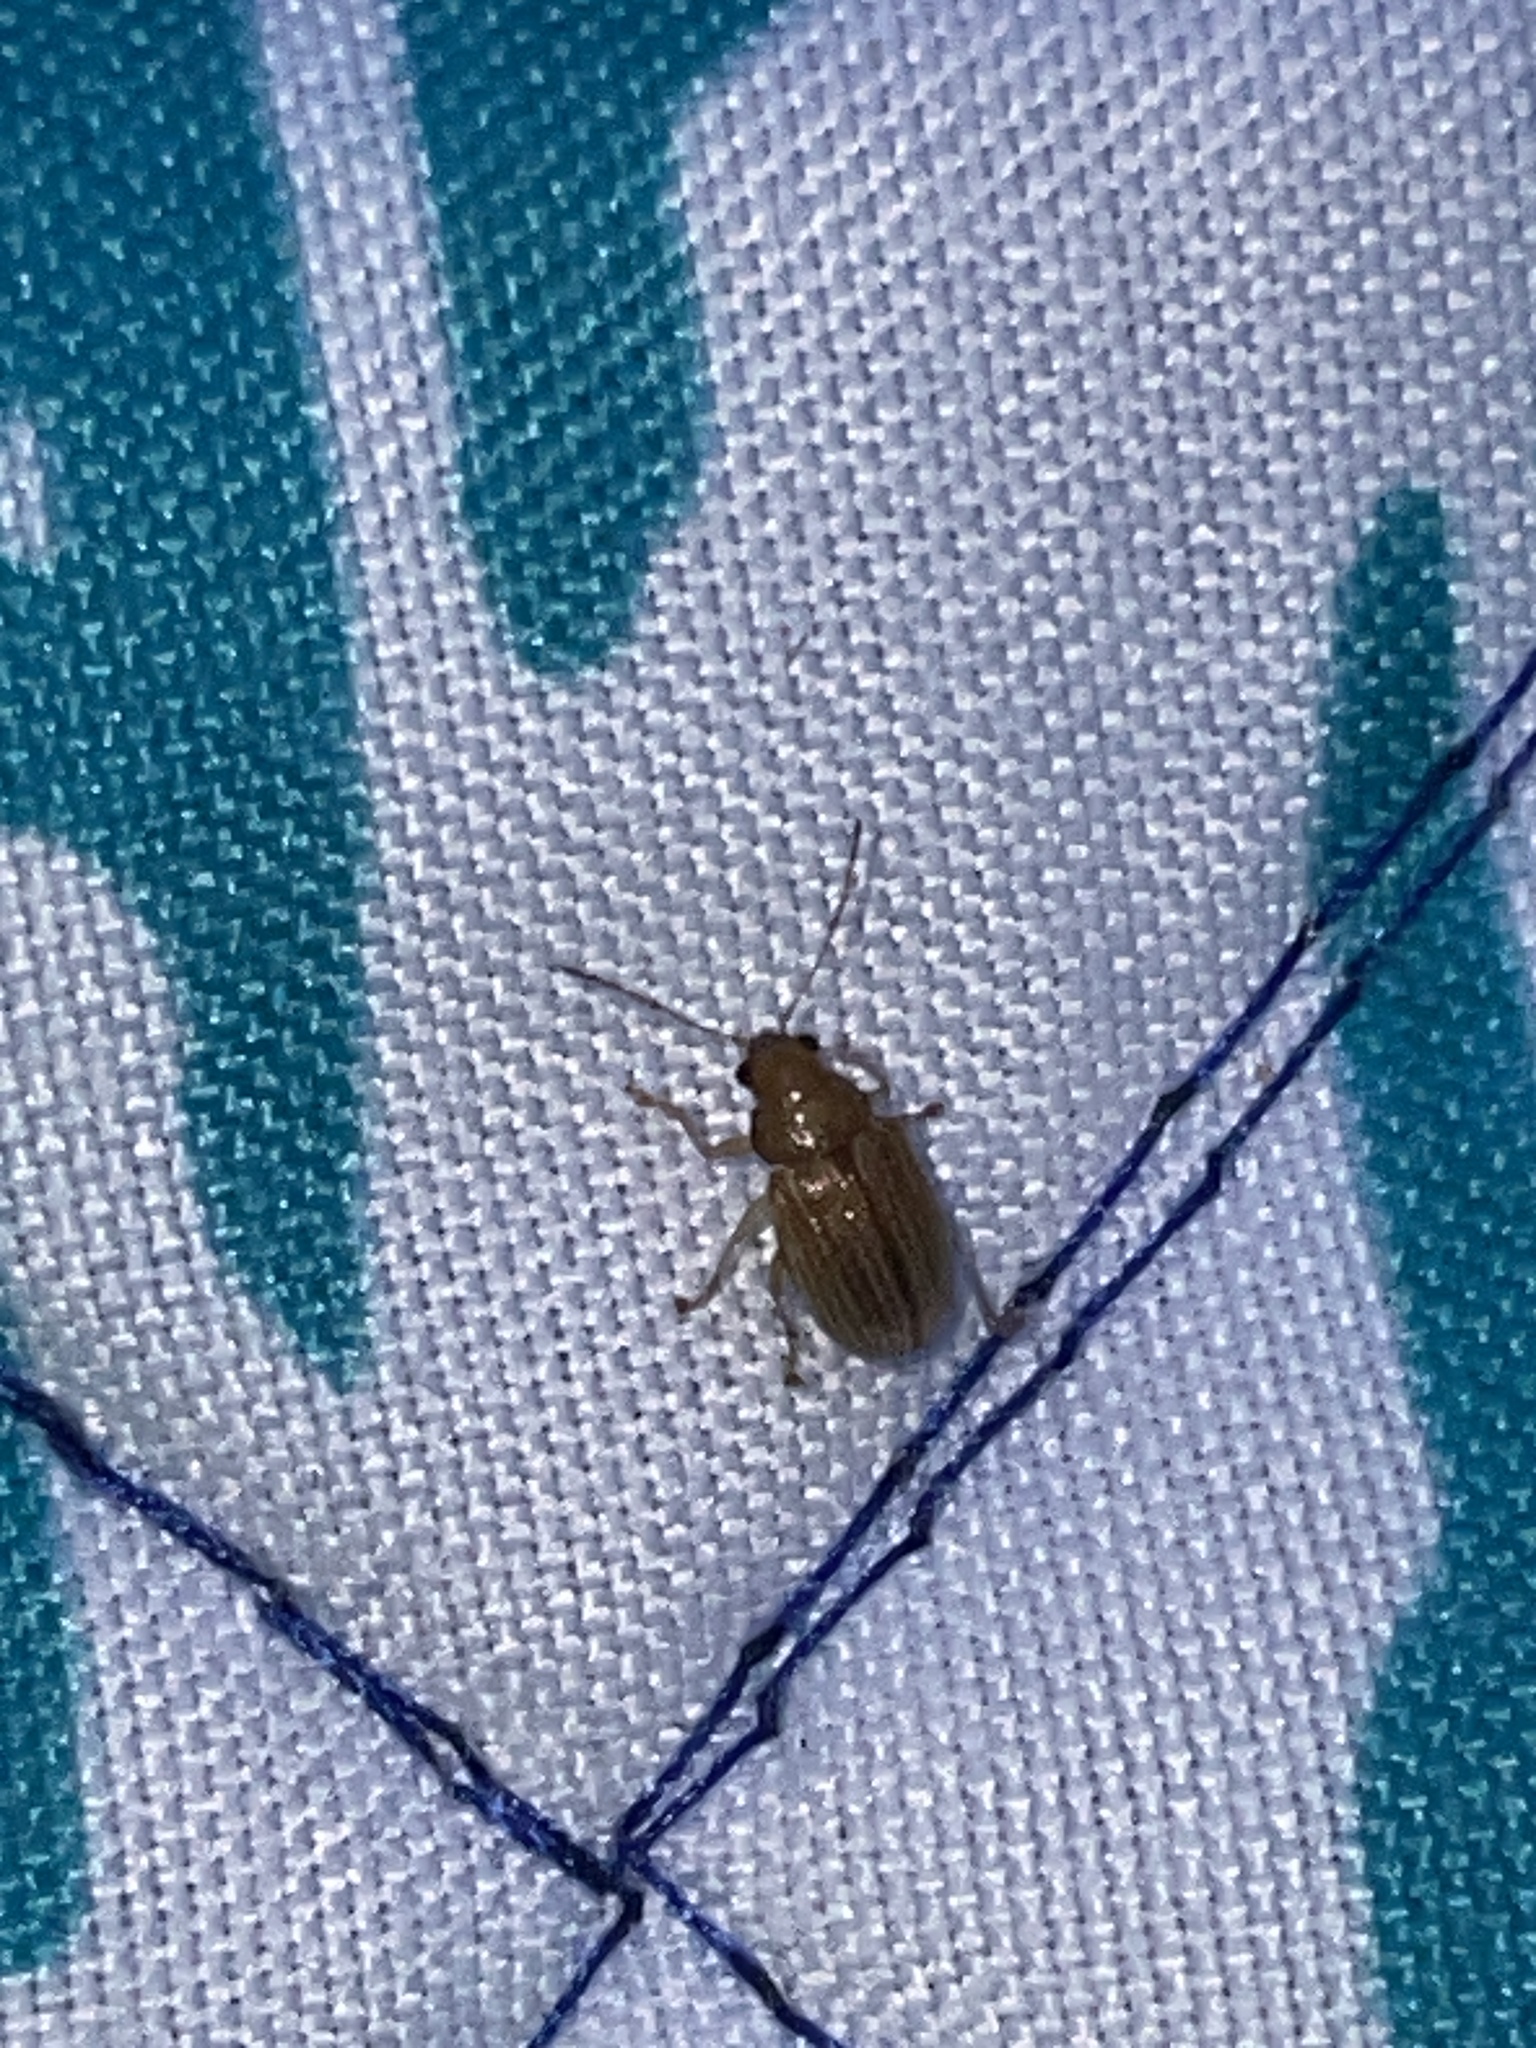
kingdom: Animalia
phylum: Arthropoda
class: Insecta
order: Coleoptera
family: Chrysomelidae
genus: Colaspis
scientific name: Colaspis brunnea
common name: Grape colaspis
